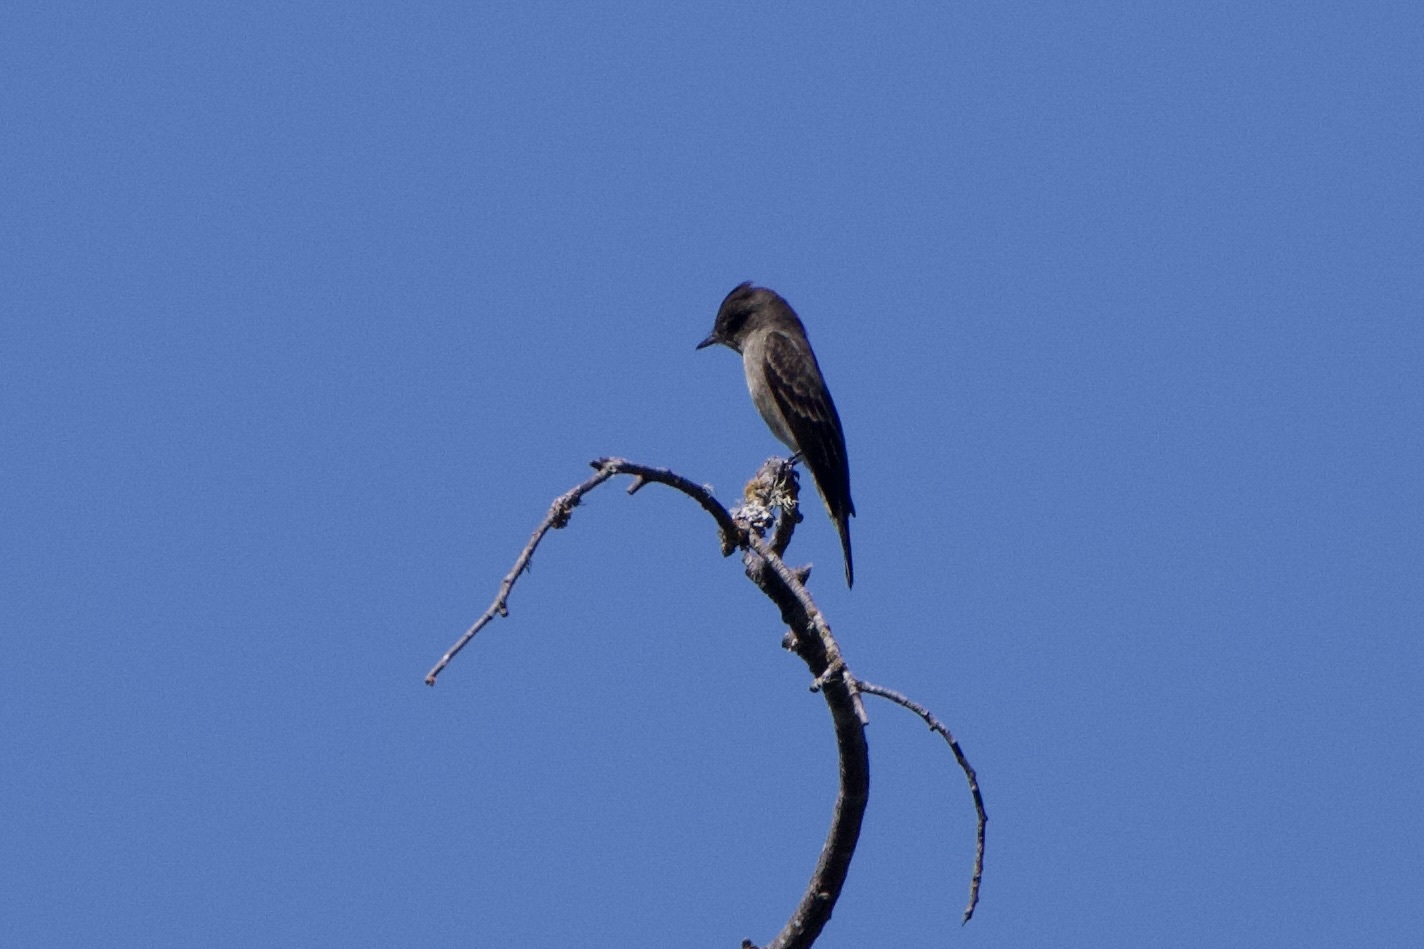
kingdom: Animalia
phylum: Chordata
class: Aves
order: Passeriformes
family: Tyrannidae
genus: Contopus
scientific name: Contopus sordidulus
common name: Western wood-pewee
